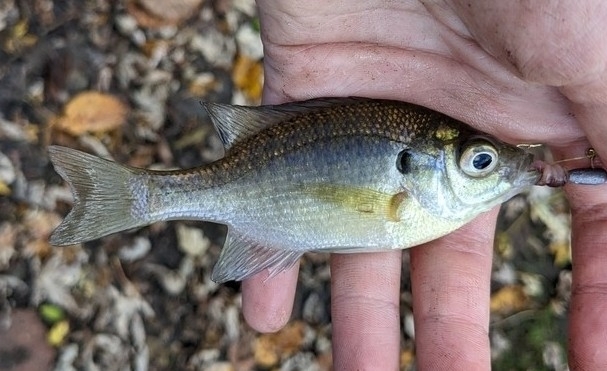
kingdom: Animalia
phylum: Chordata
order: Perciformes
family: Centrarchidae
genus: Lepomis
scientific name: Lepomis macrochirus
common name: Bluegill
